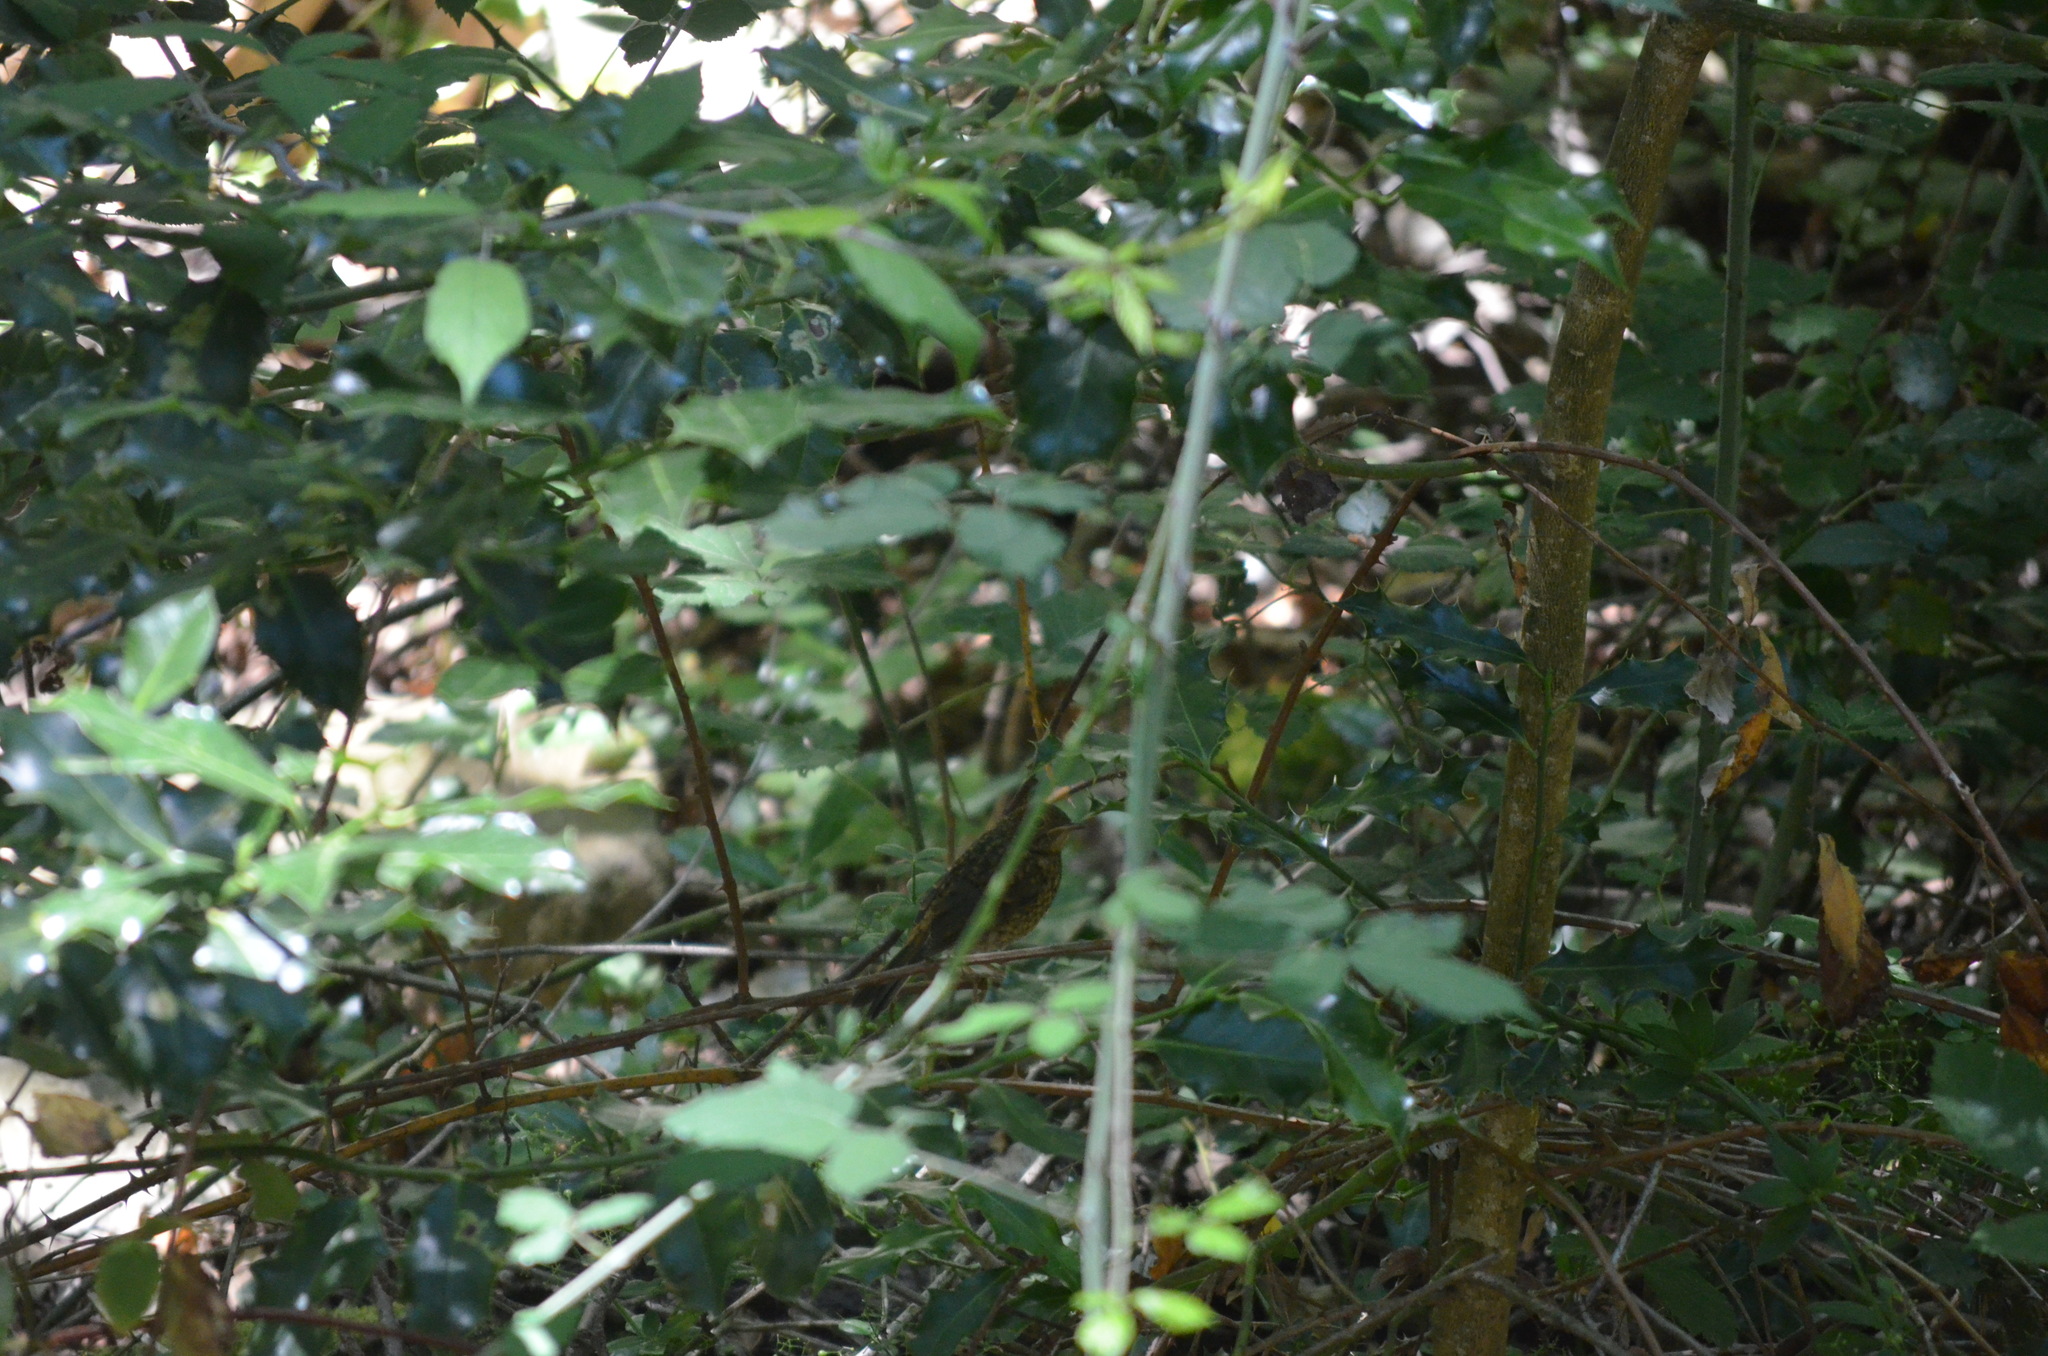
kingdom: Animalia
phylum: Chordata
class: Aves
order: Passeriformes
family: Muscicapidae
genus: Erithacus
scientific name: Erithacus rubecula
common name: European robin
